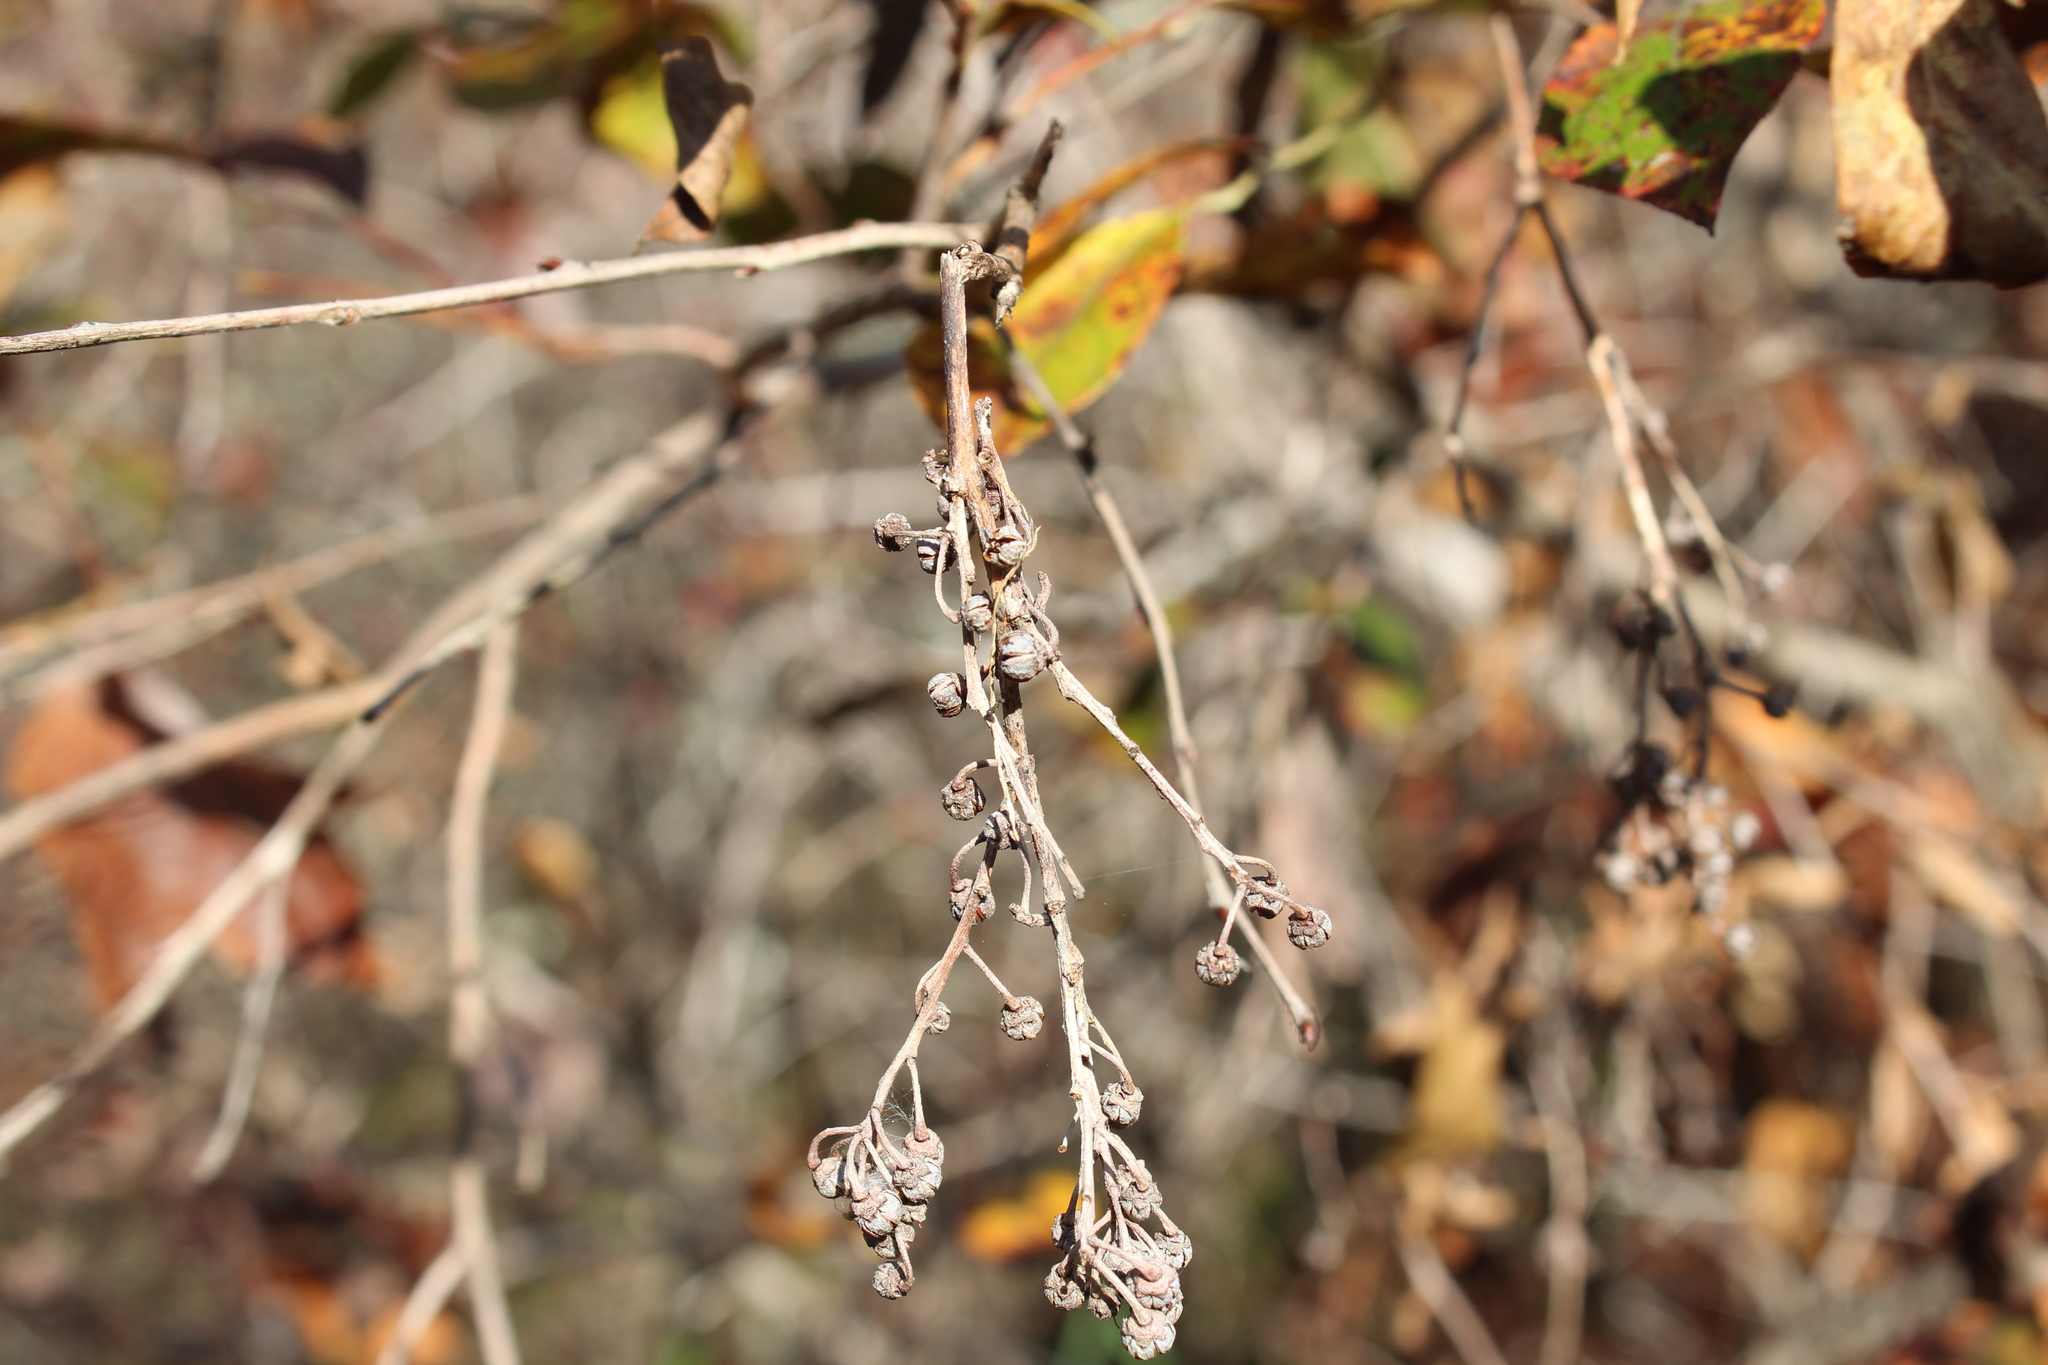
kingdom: Plantae
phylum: Tracheophyta
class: Magnoliopsida
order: Ericales
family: Ericaceae
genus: Lyonia
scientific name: Lyonia ligustrina
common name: Maleberry
